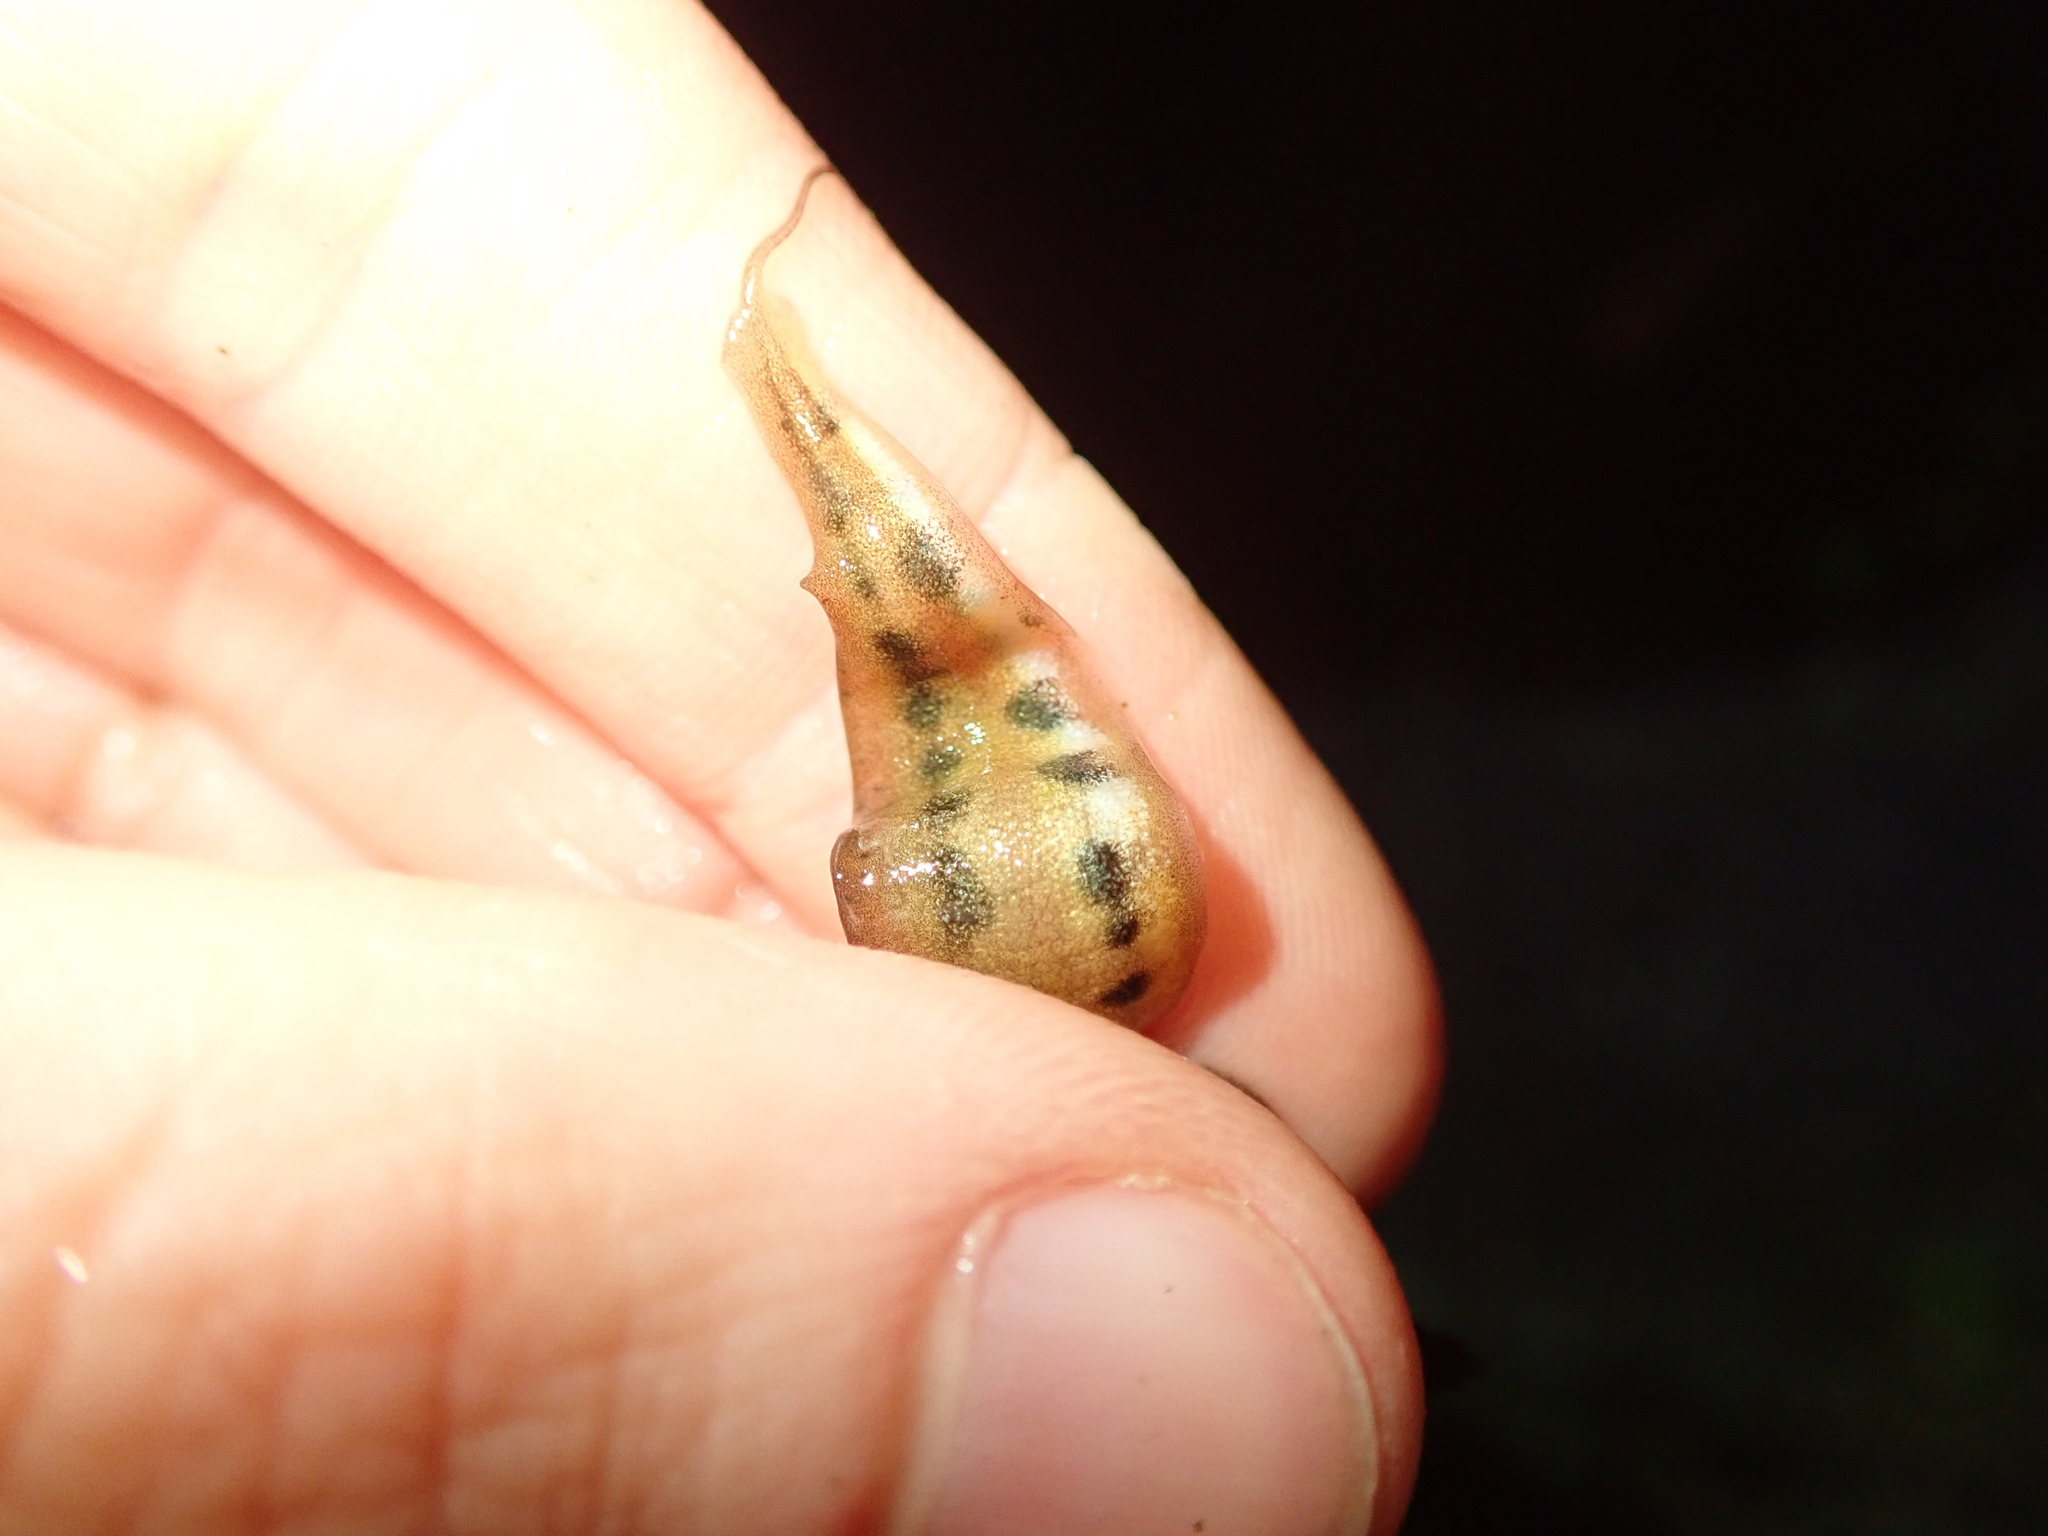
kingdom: Animalia
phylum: Chordata
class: Amphibia
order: Caudata
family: Salamandridae
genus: Lissotriton
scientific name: Lissotriton helveticus
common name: Palmate newt
